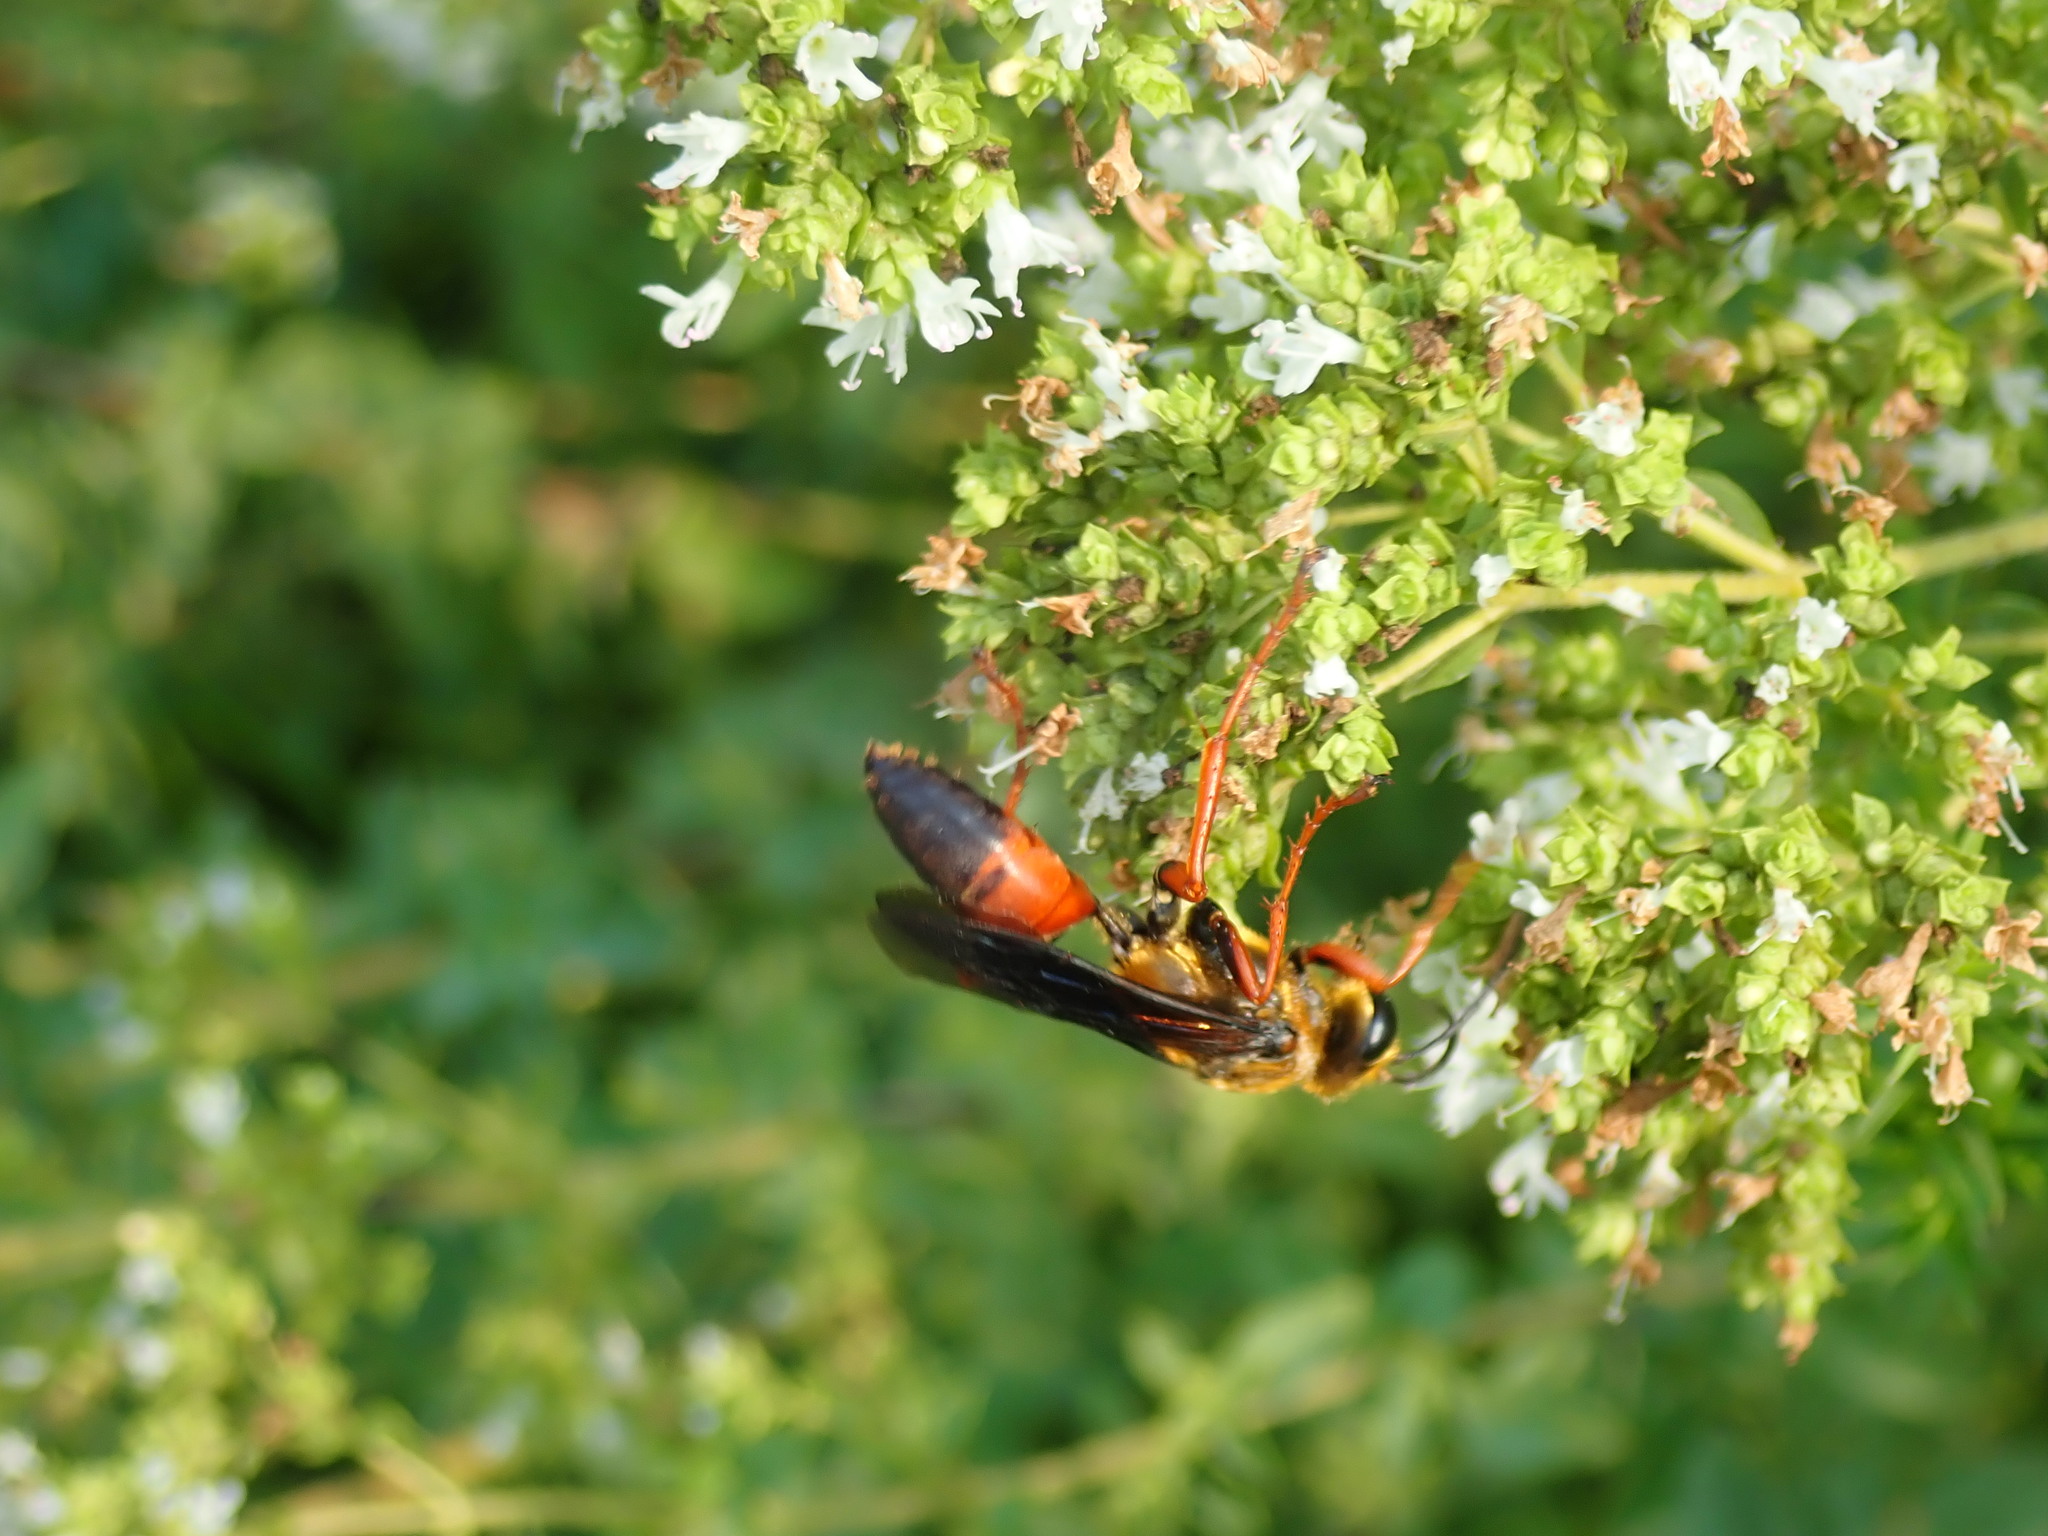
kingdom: Animalia
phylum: Arthropoda
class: Insecta
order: Hymenoptera
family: Sphecidae
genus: Sphex
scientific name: Sphex ichneumoneus
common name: Great golden digger wasp
